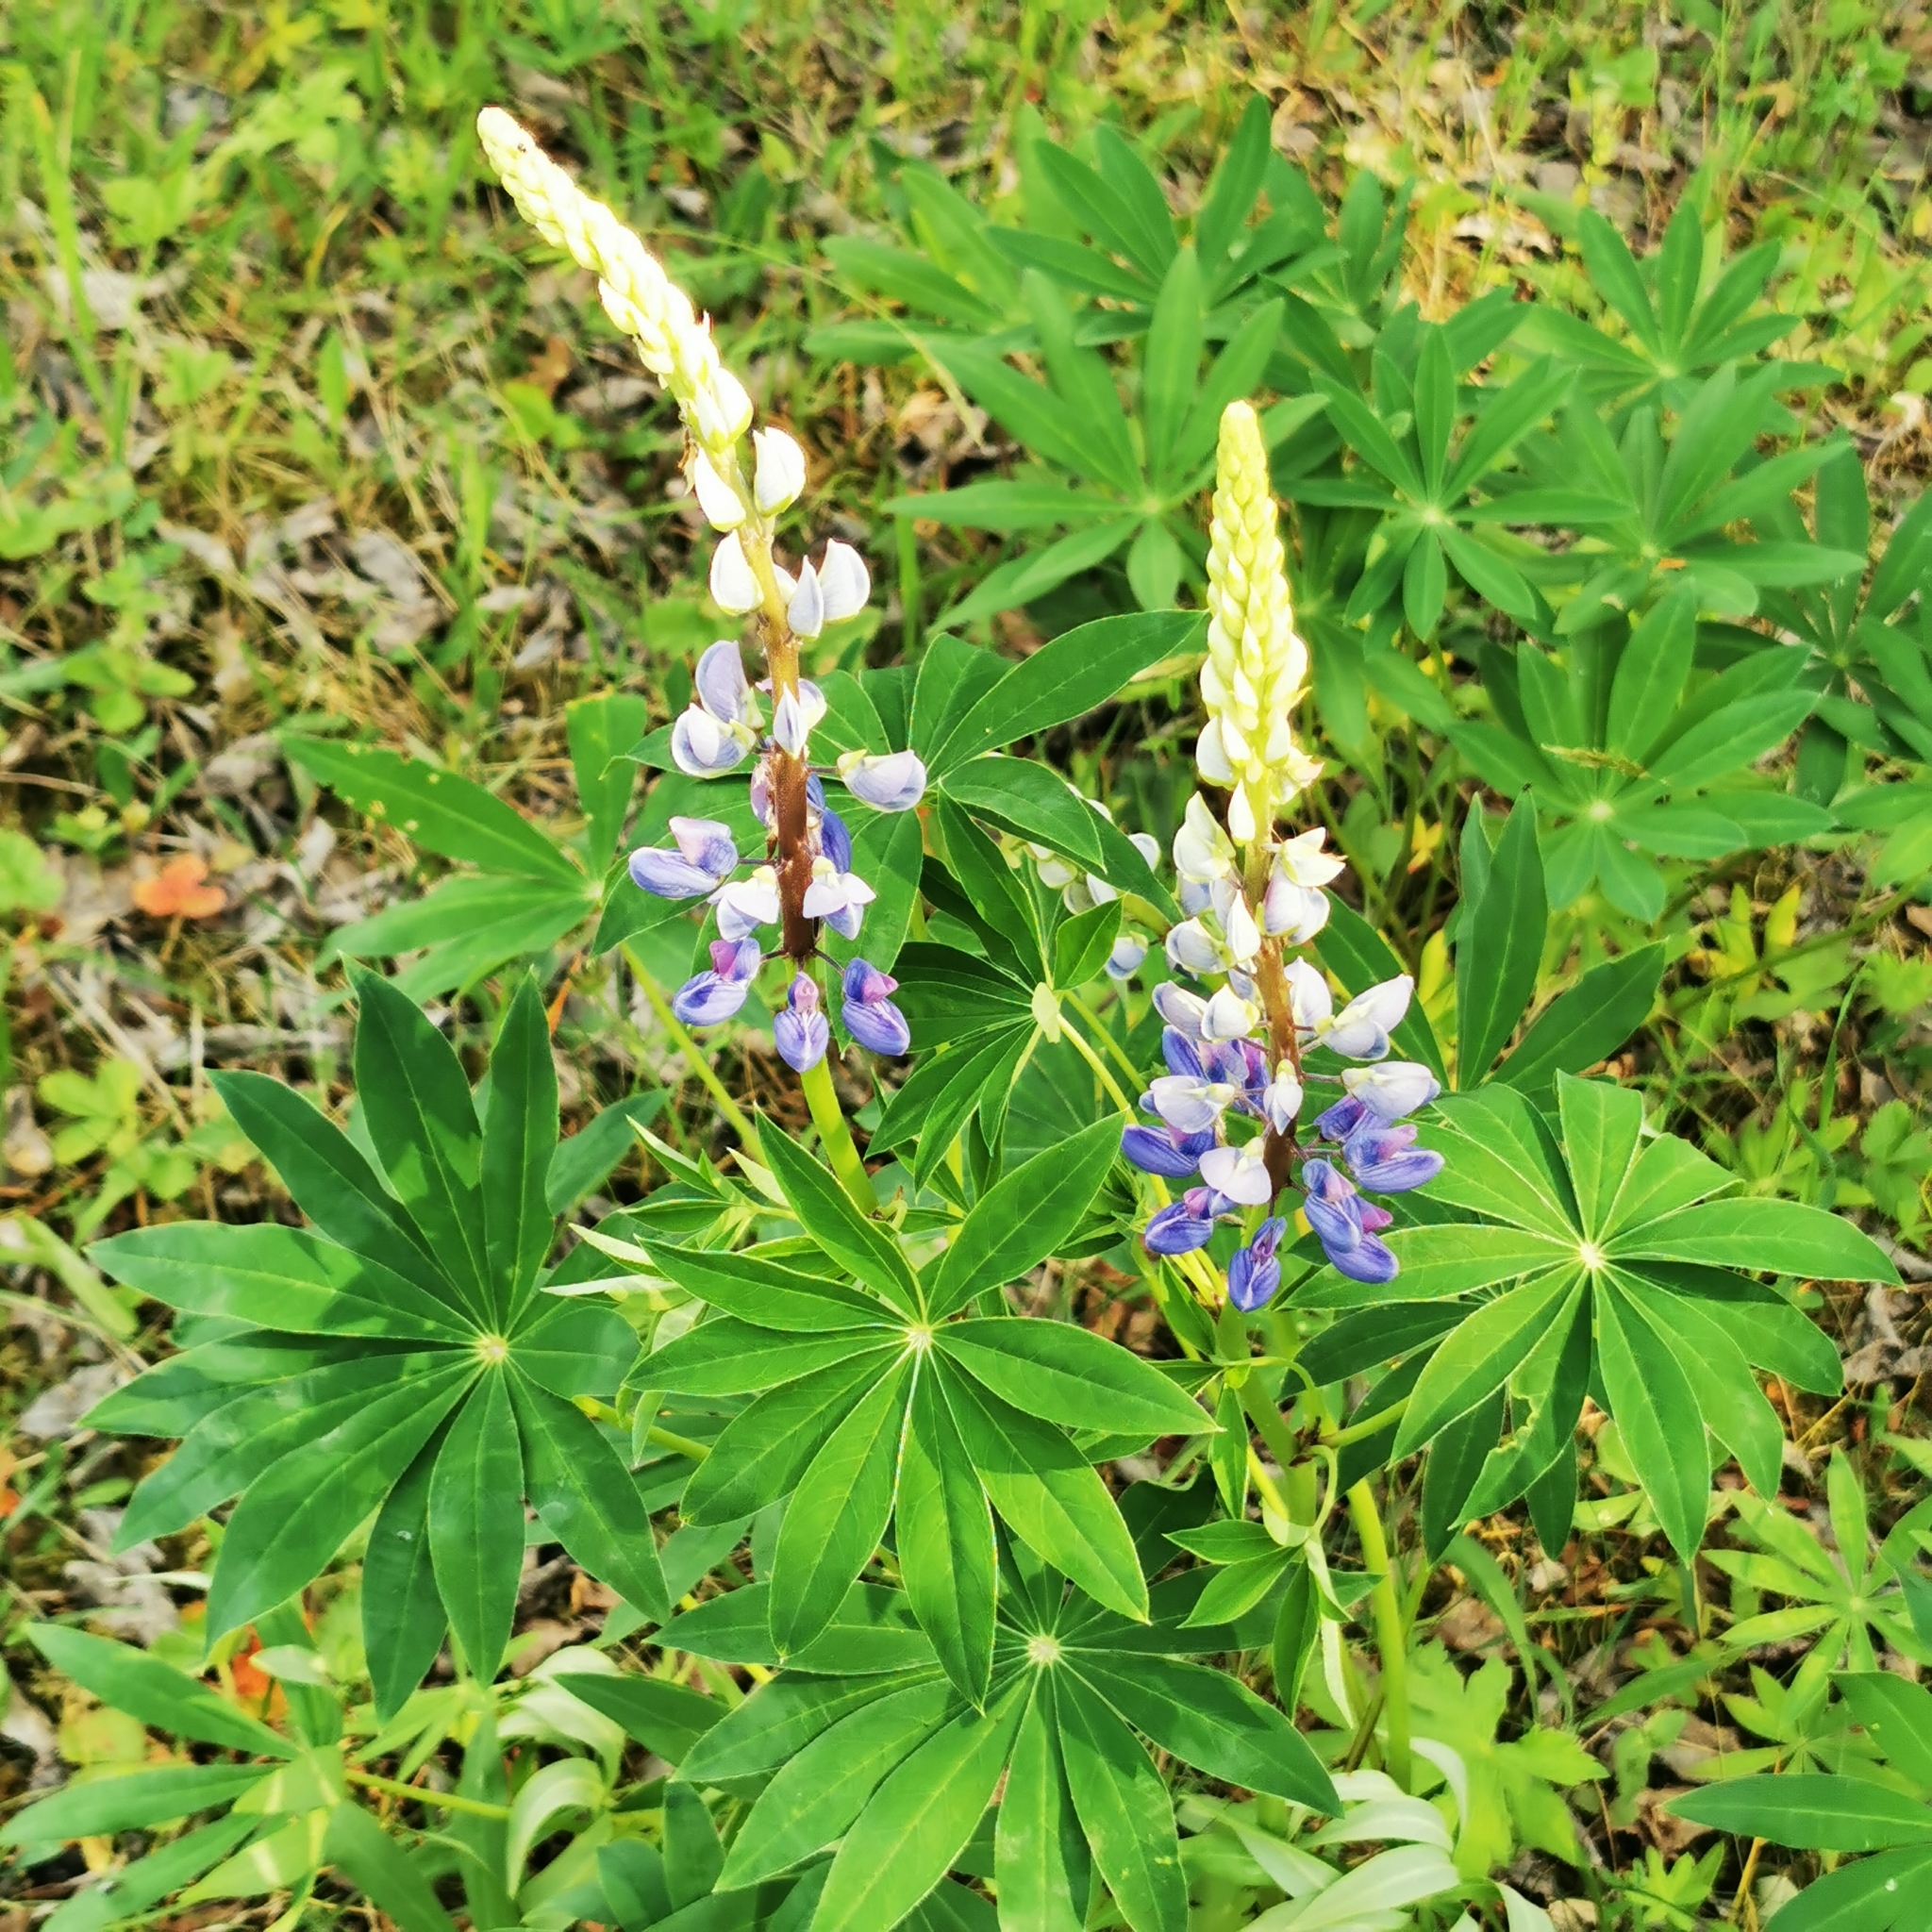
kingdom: Plantae
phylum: Tracheophyta
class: Magnoliopsida
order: Fabales
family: Fabaceae
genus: Lupinus
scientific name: Lupinus polyphyllus
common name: Garden lupin
